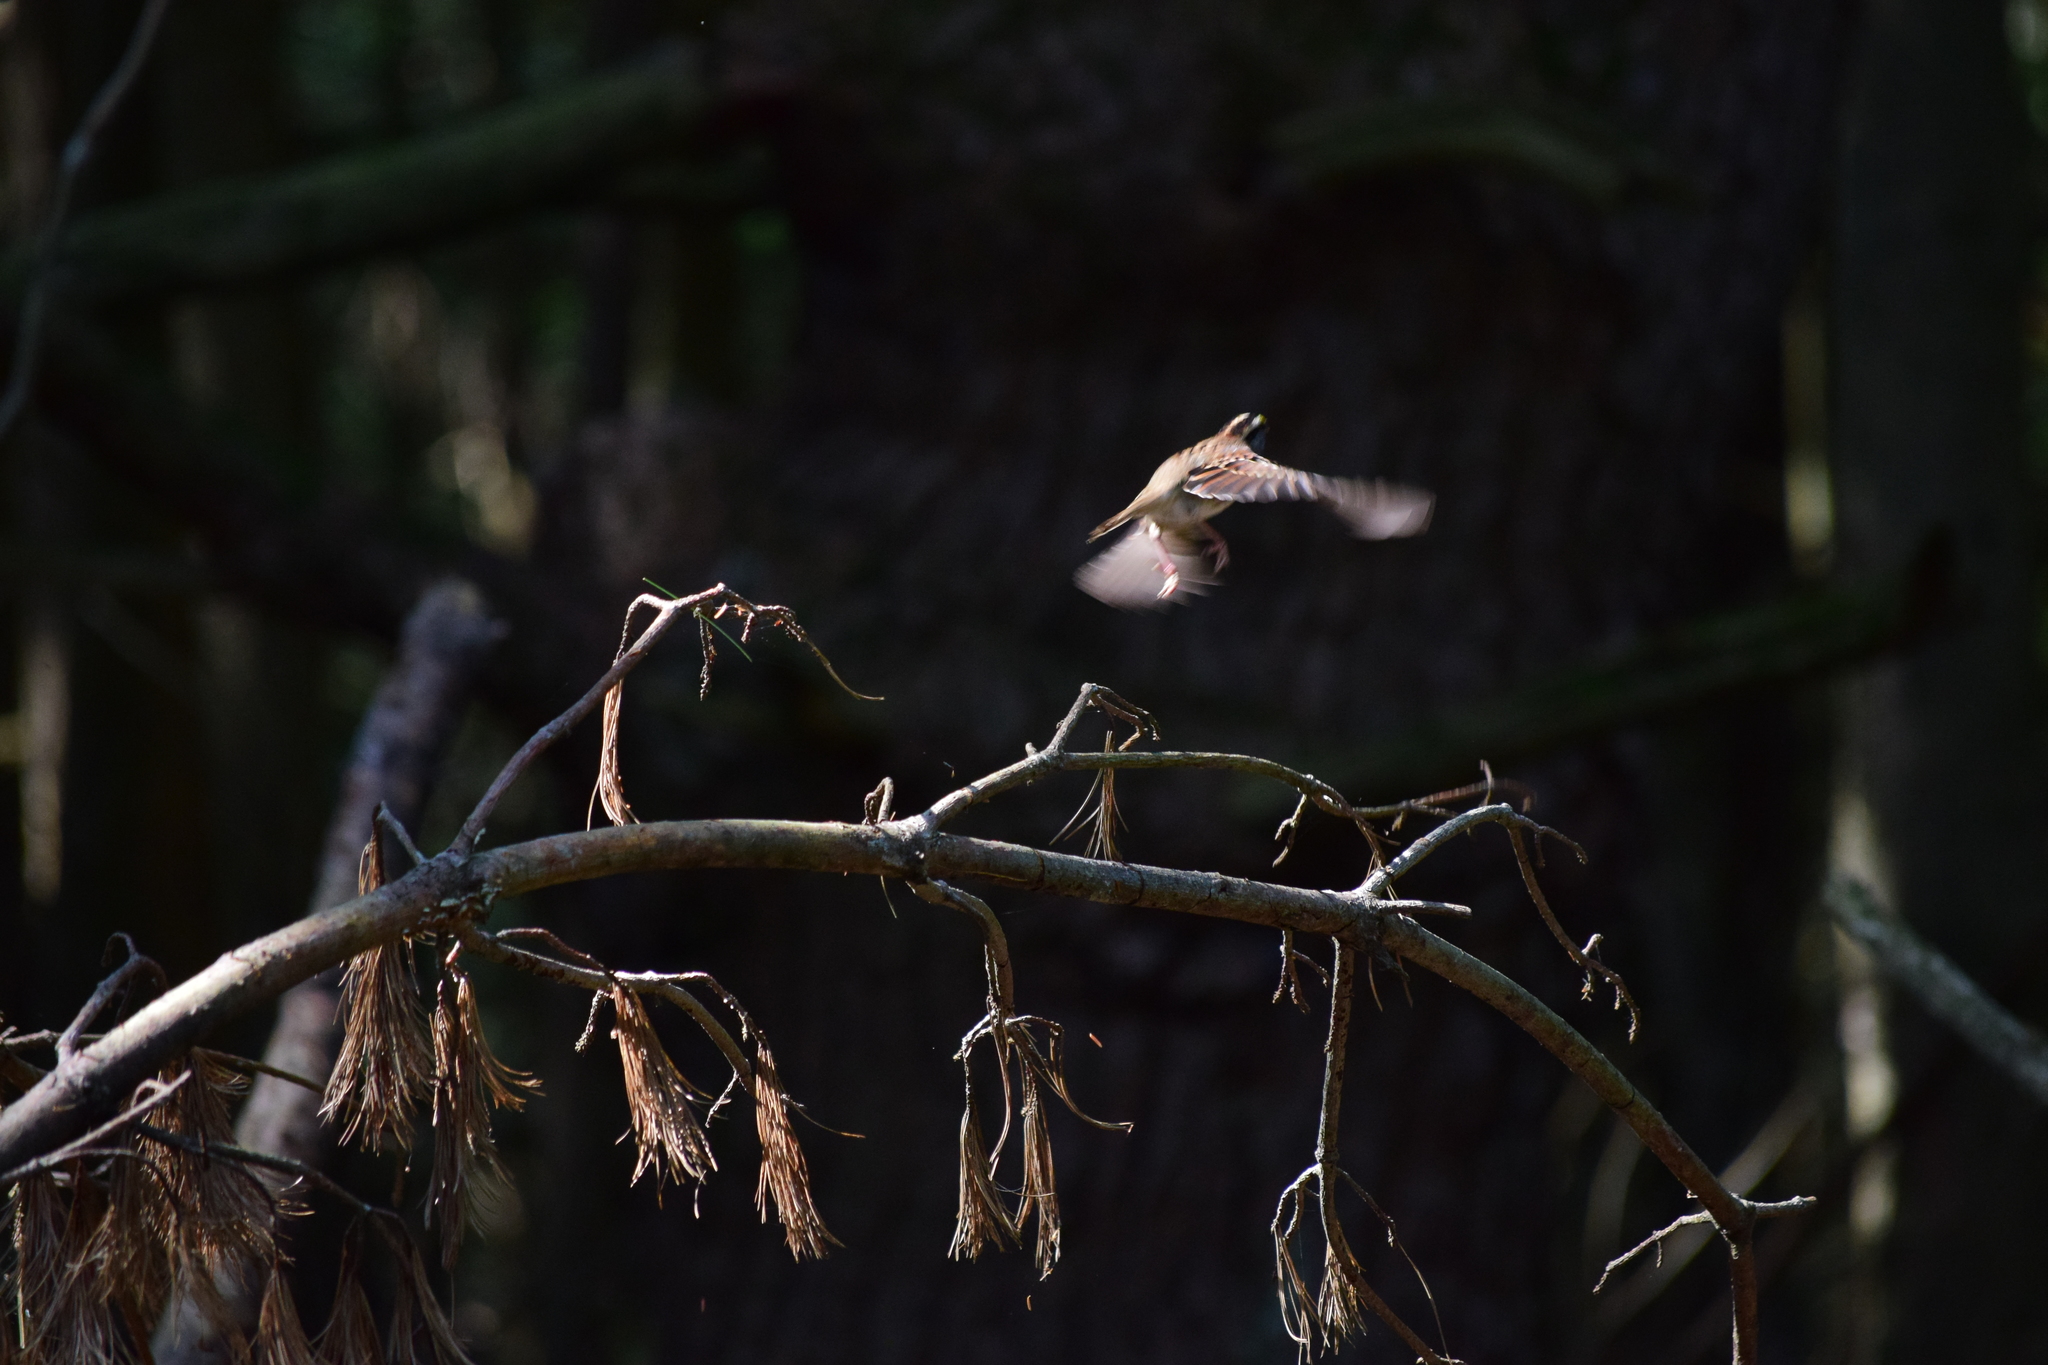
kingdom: Animalia
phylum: Chordata
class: Aves
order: Passeriformes
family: Passerellidae
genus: Zonotrichia
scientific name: Zonotrichia albicollis
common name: White-throated sparrow
